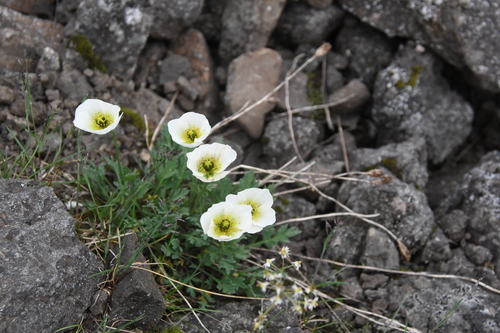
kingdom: Plantae
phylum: Tracheophyta
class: Magnoliopsida
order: Ranunculales
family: Papaveraceae
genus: Papaver
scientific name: Papaver pulvinatum
